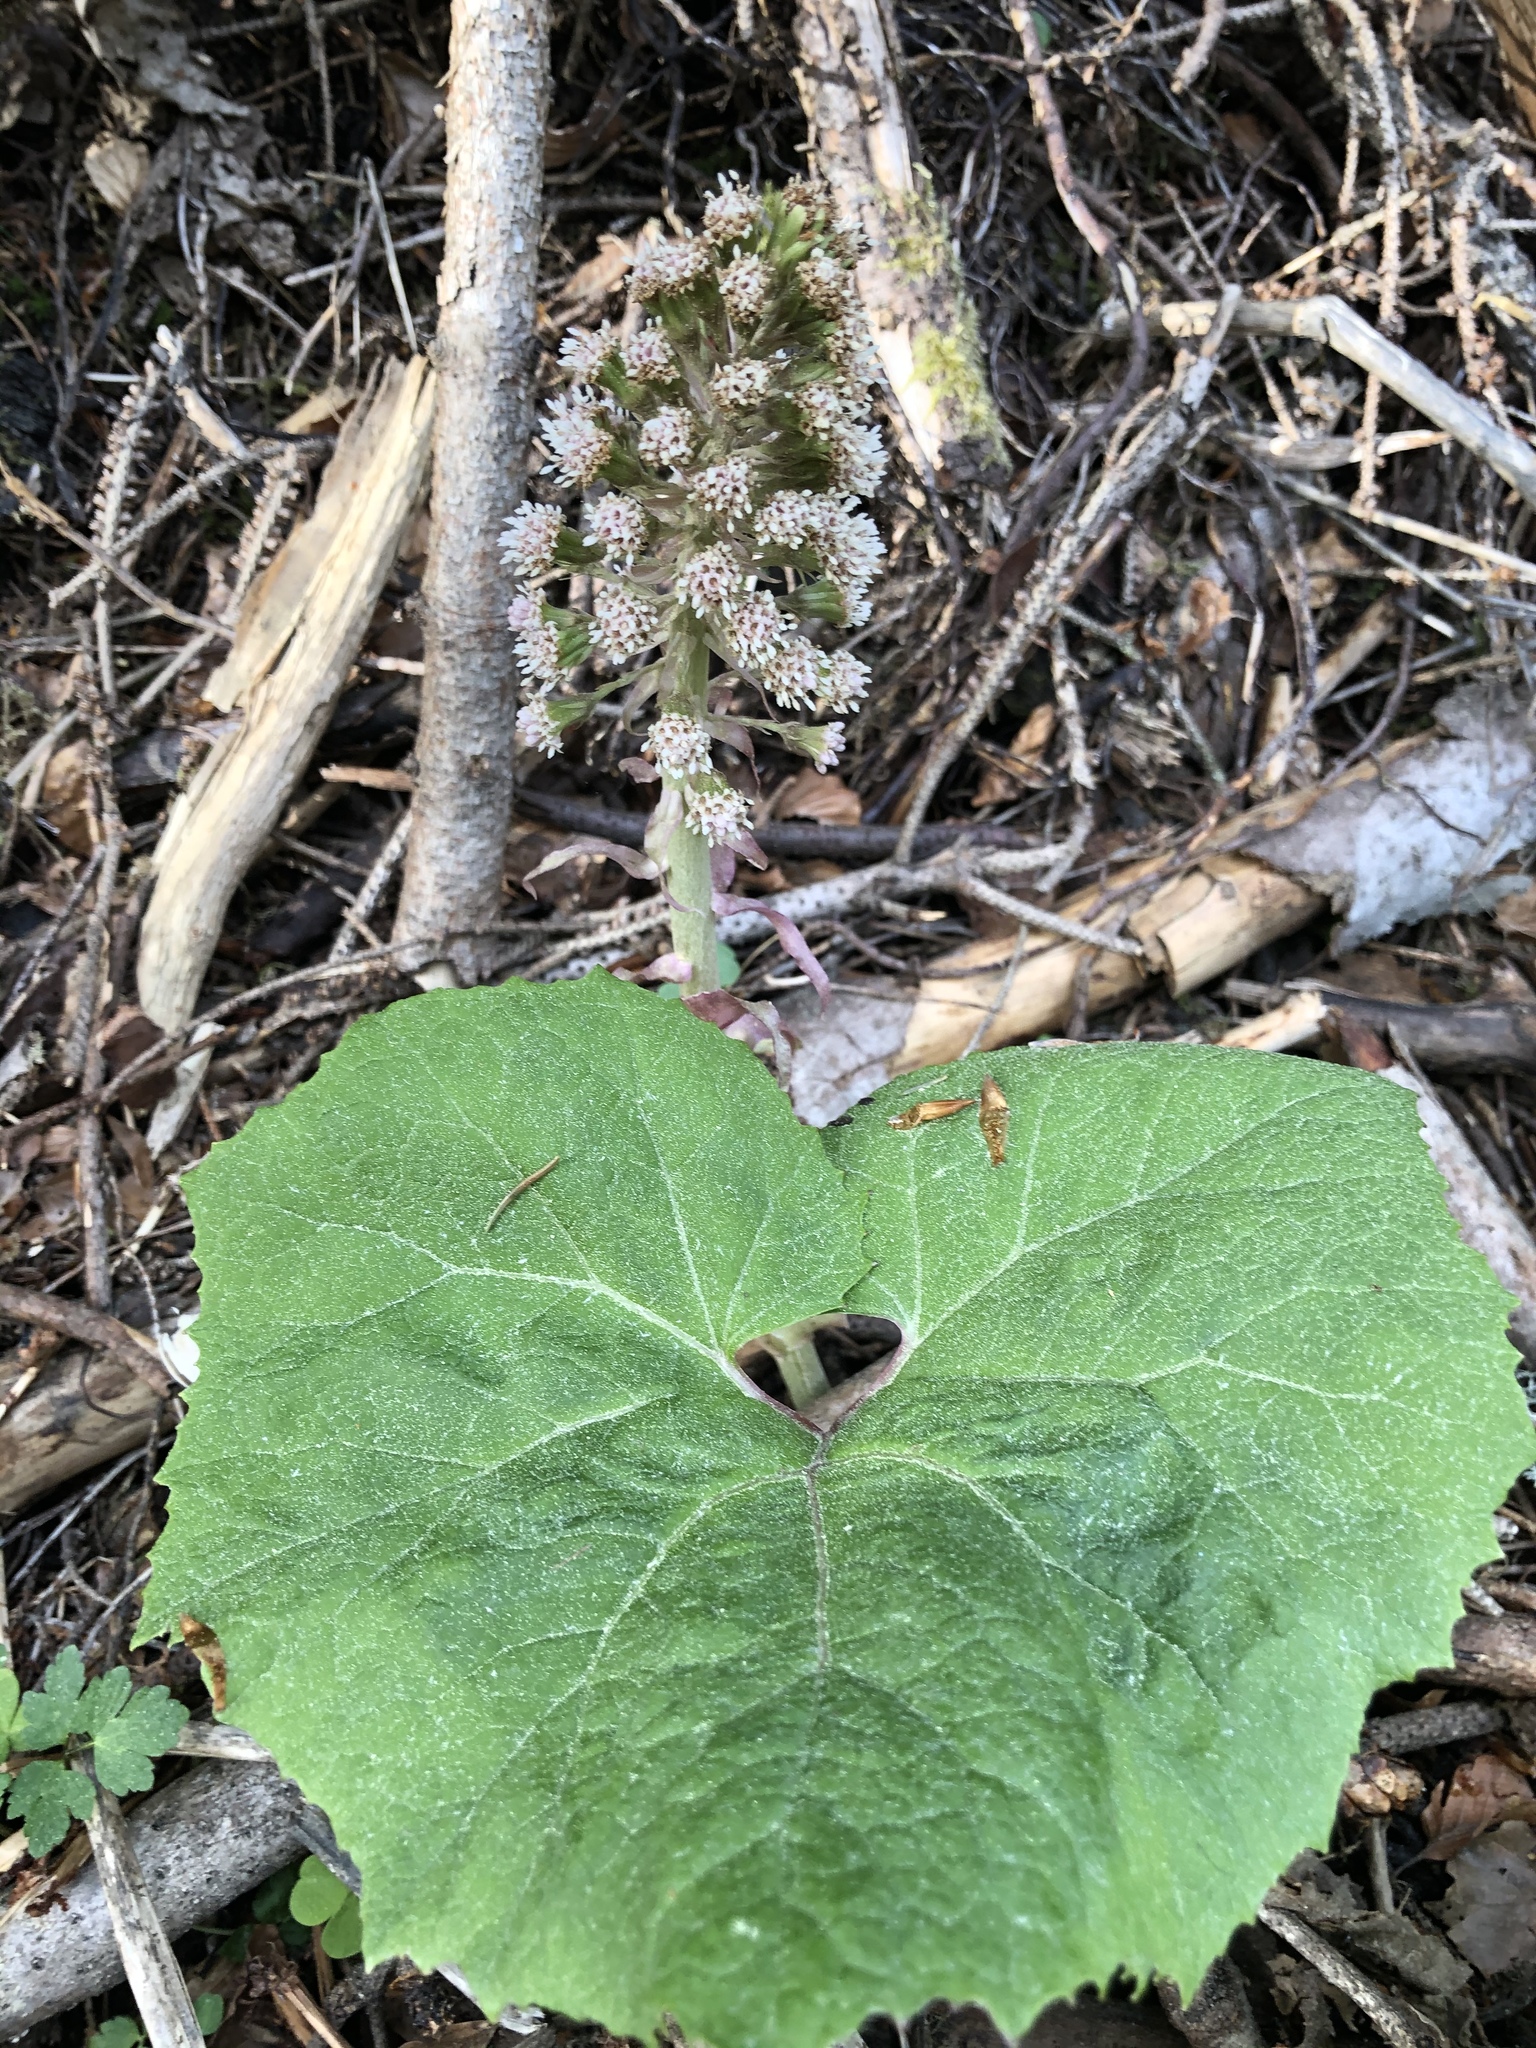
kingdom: Plantae
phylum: Tracheophyta
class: Magnoliopsida
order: Asterales
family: Asteraceae
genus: Petasites
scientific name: Petasites hybridus
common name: Butterbur
